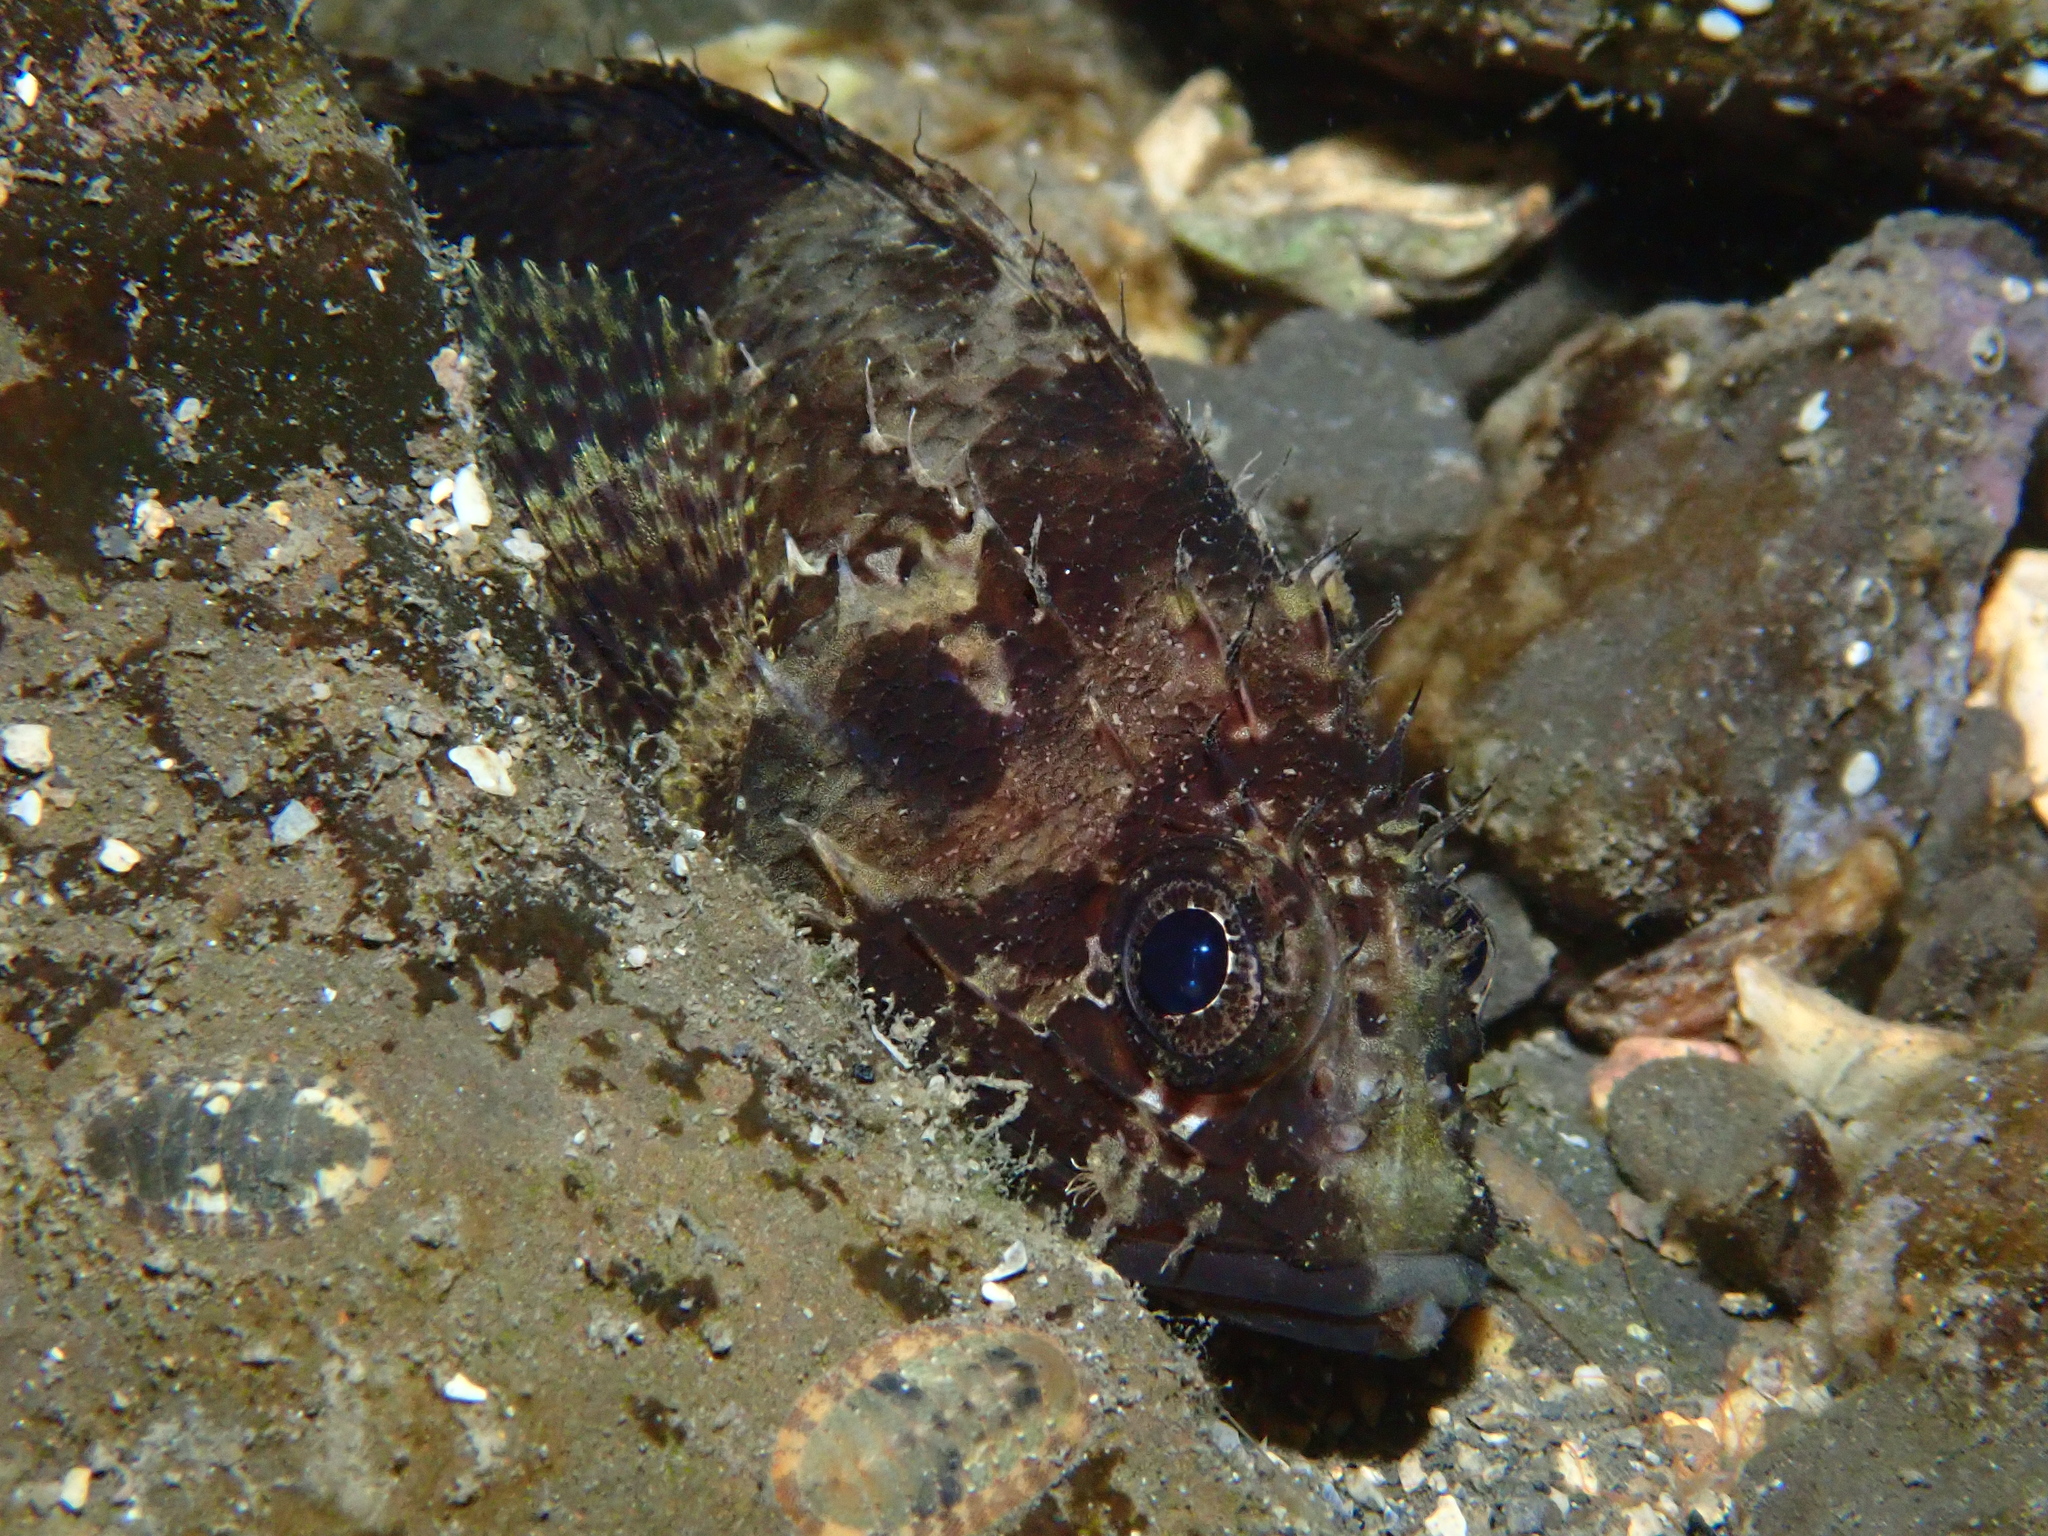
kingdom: Animalia
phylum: Chordata
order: Scorpaeniformes
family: Scorpaenidae
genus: Scorpaenodes
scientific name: Scorpaenodes guamensis
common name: Guam scorpionfish
